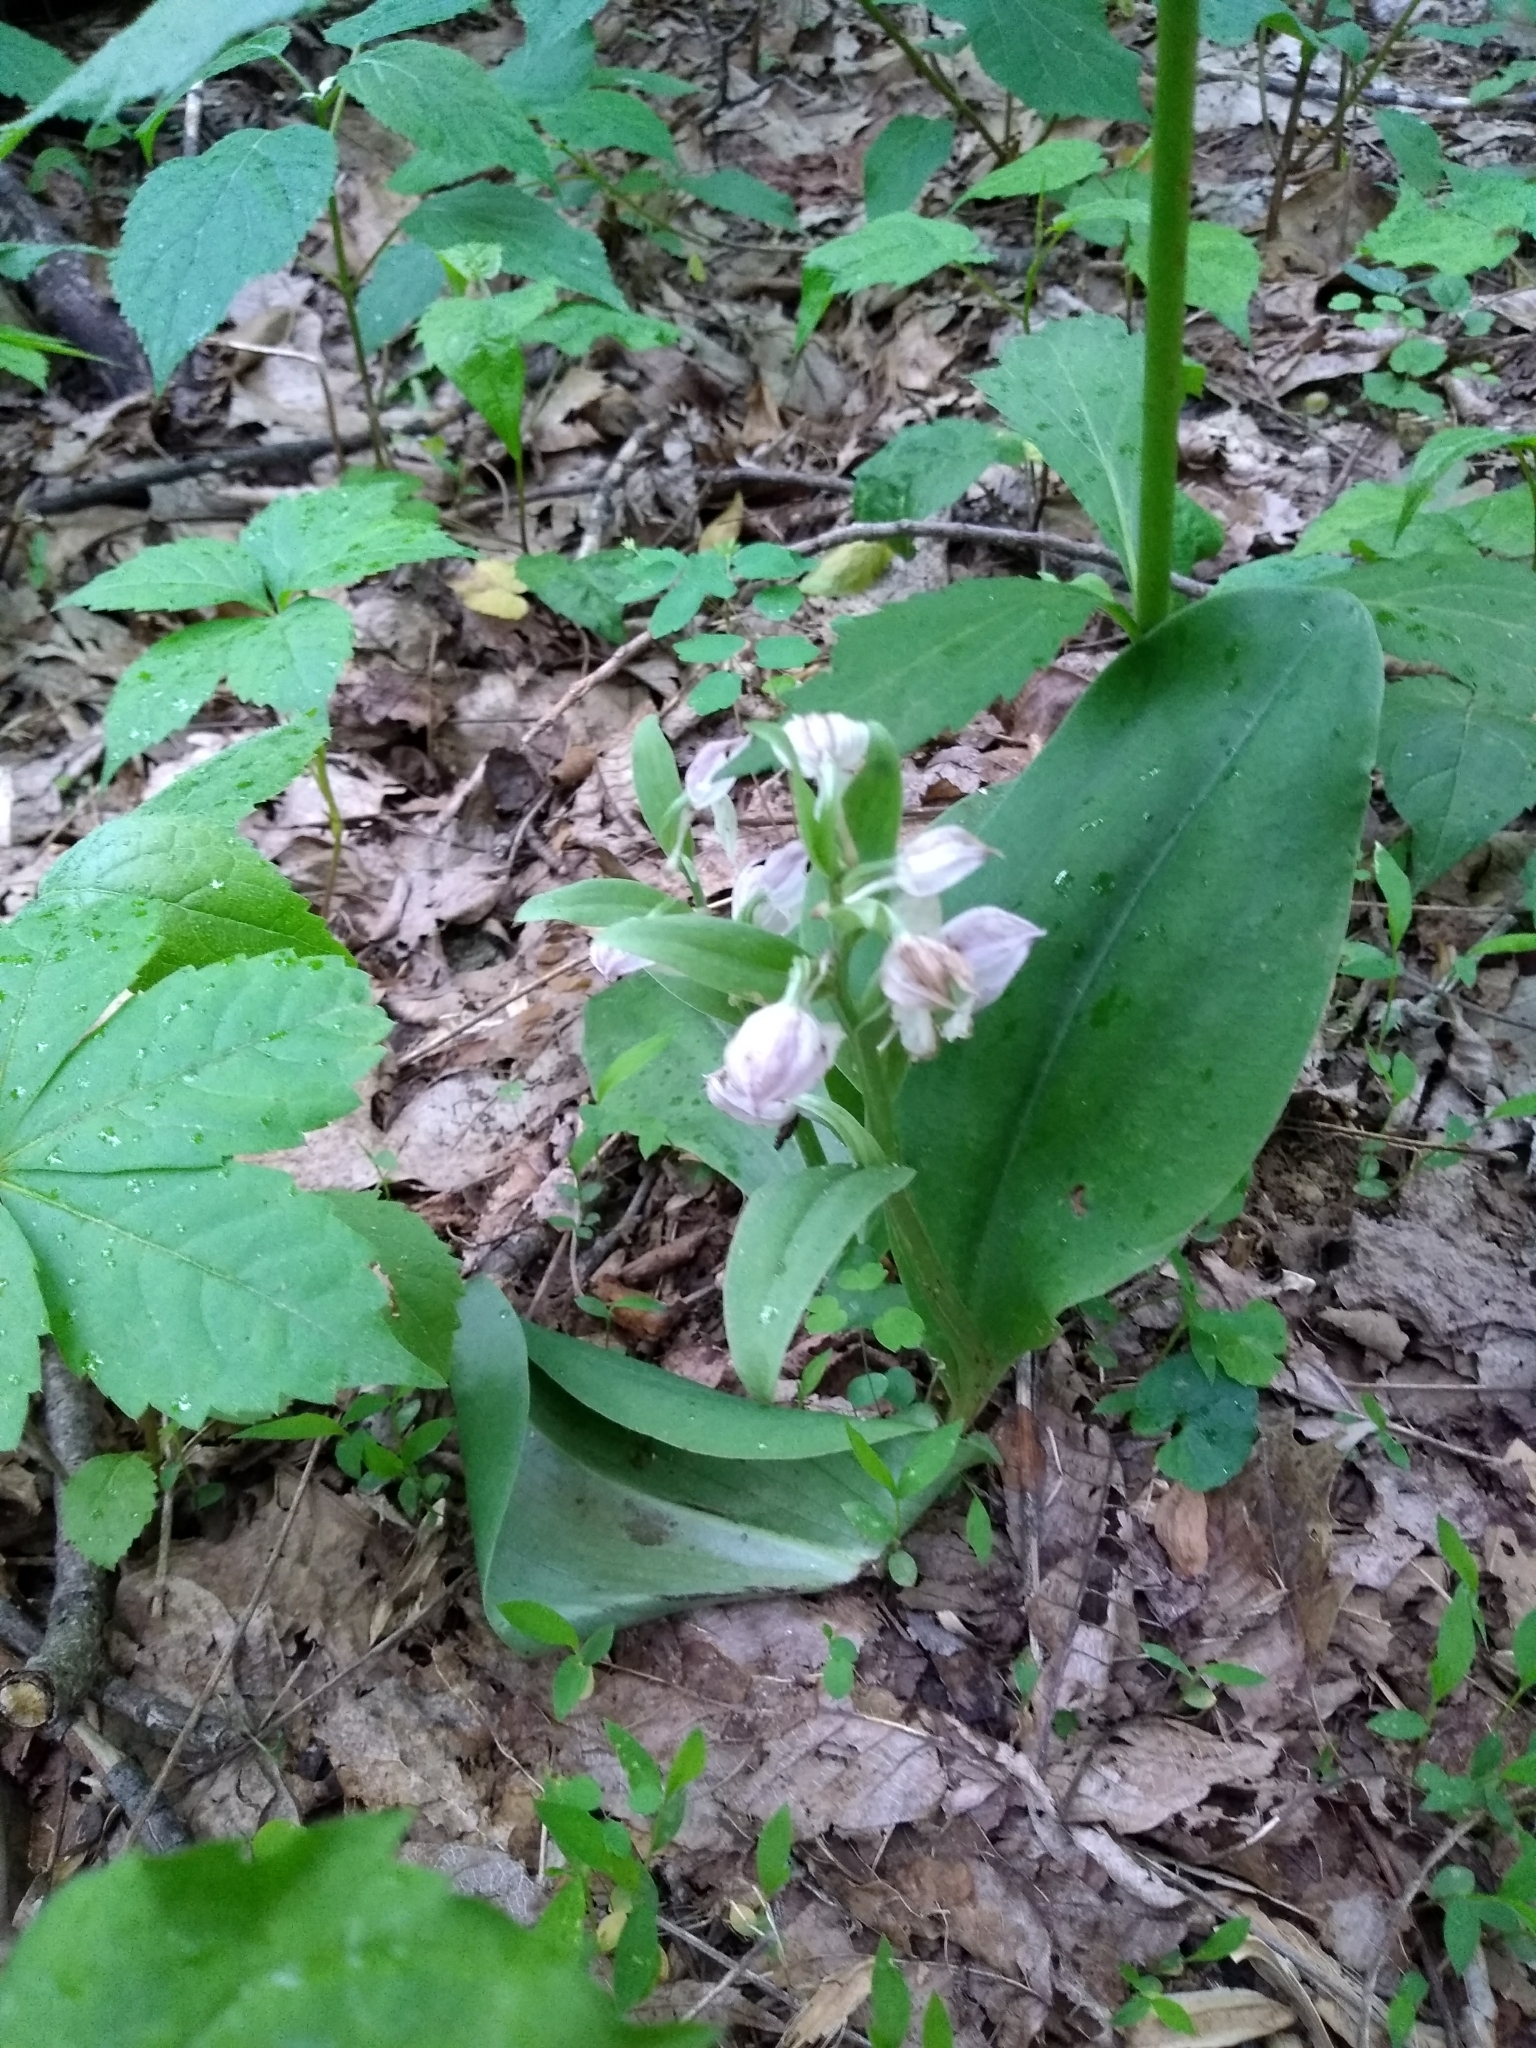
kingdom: Plantae
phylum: Tracheophyta
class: Liliopsida
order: Asparagales
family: Orchidaceae
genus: Galearis
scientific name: Galearis spectabilis
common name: Purple-hooded orchis
